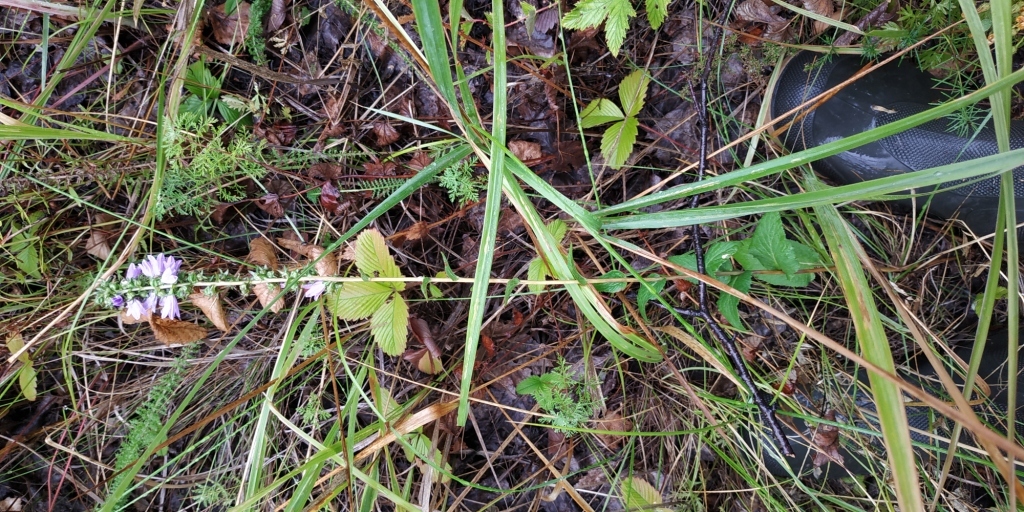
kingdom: Plantae
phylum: Tracheophyta
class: Magnoliopsida
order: Asterales
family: Campanulaceae
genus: Campanula
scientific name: Campanula bononiensis
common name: Pale bellflower
